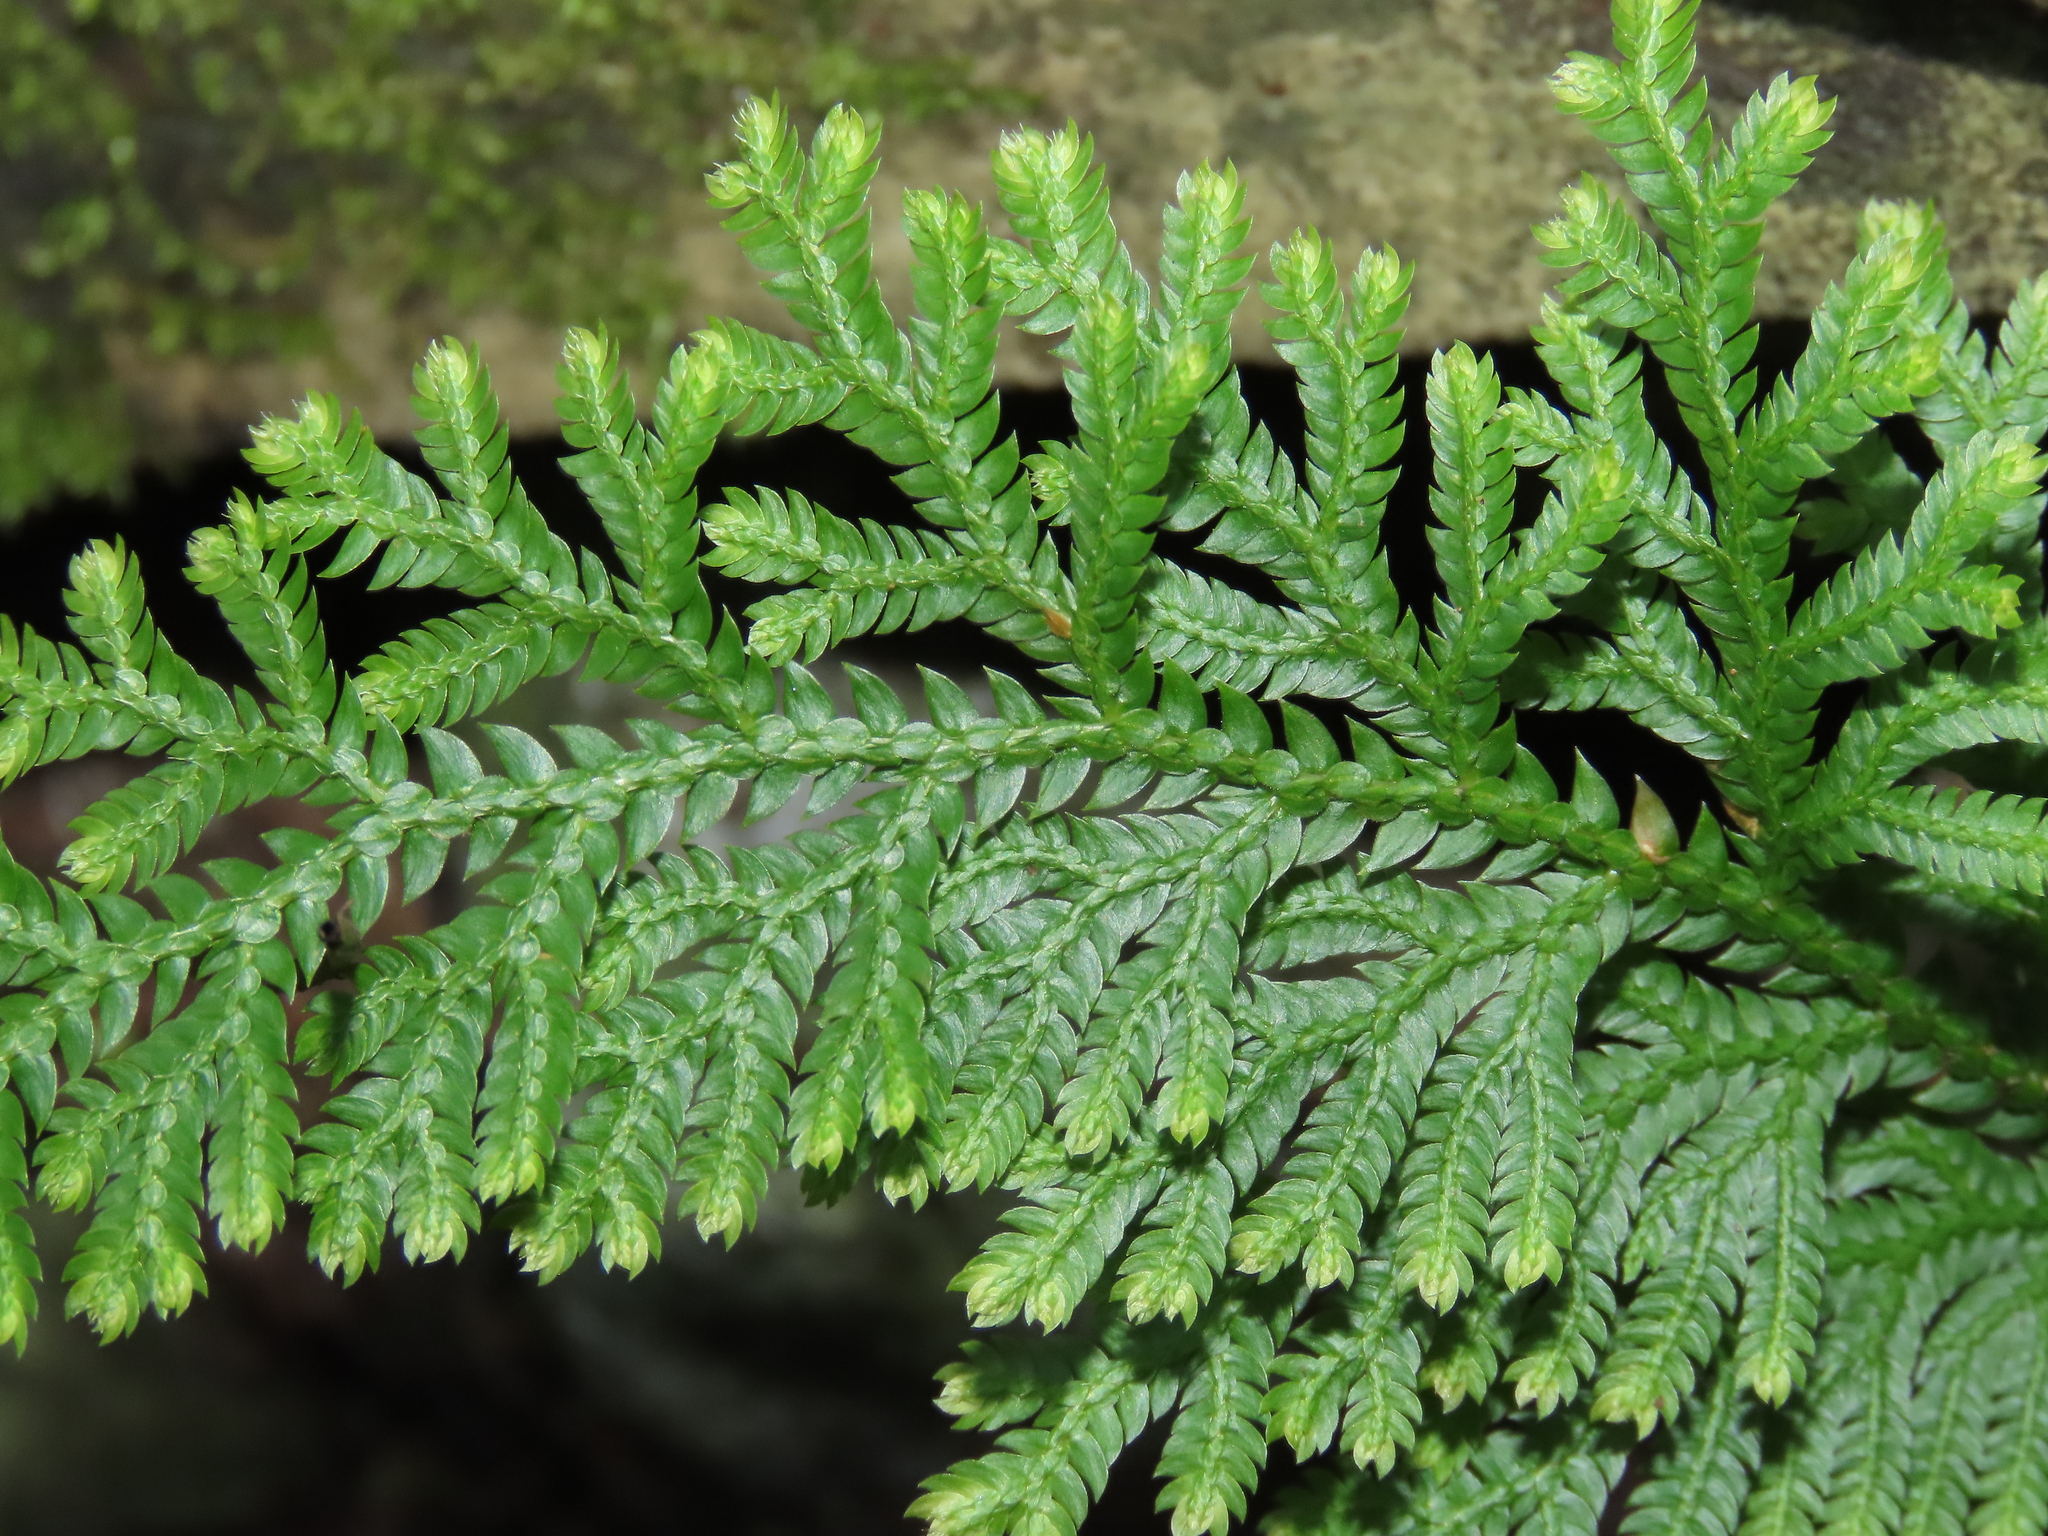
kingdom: Plantae
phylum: Tracheophyta
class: Lycopodiopsida
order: Selaginellales
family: Selaginellaceae
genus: Selaginella
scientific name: Selaginella moellendorffii
